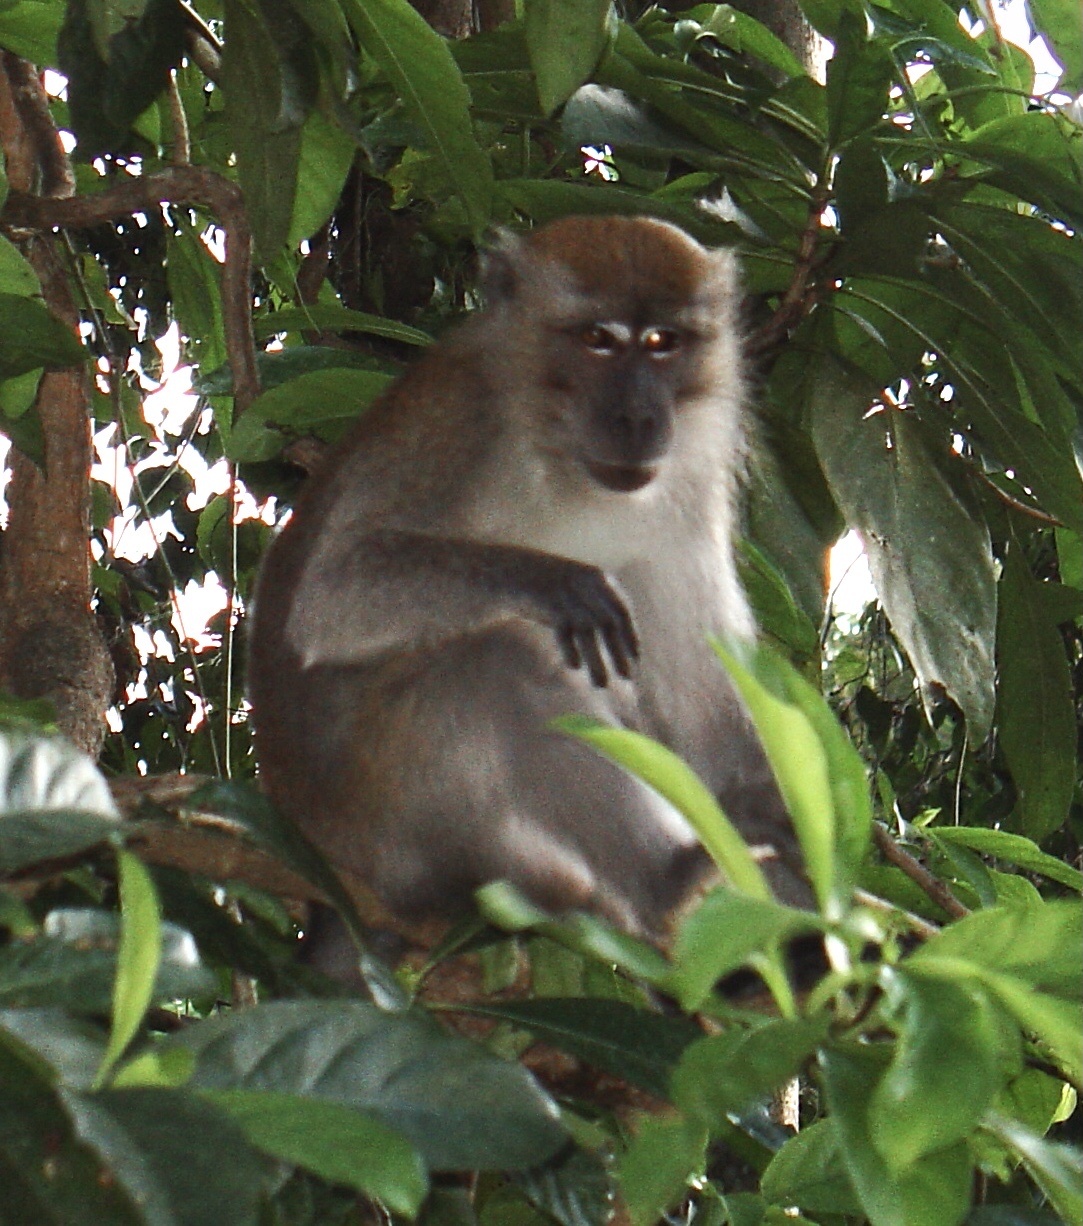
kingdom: Animalia
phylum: Chordata
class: Mammalia
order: Primates
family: Cercopithecidae
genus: Macaca
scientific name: Macaca fascicularis
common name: Crab-eating macaque
